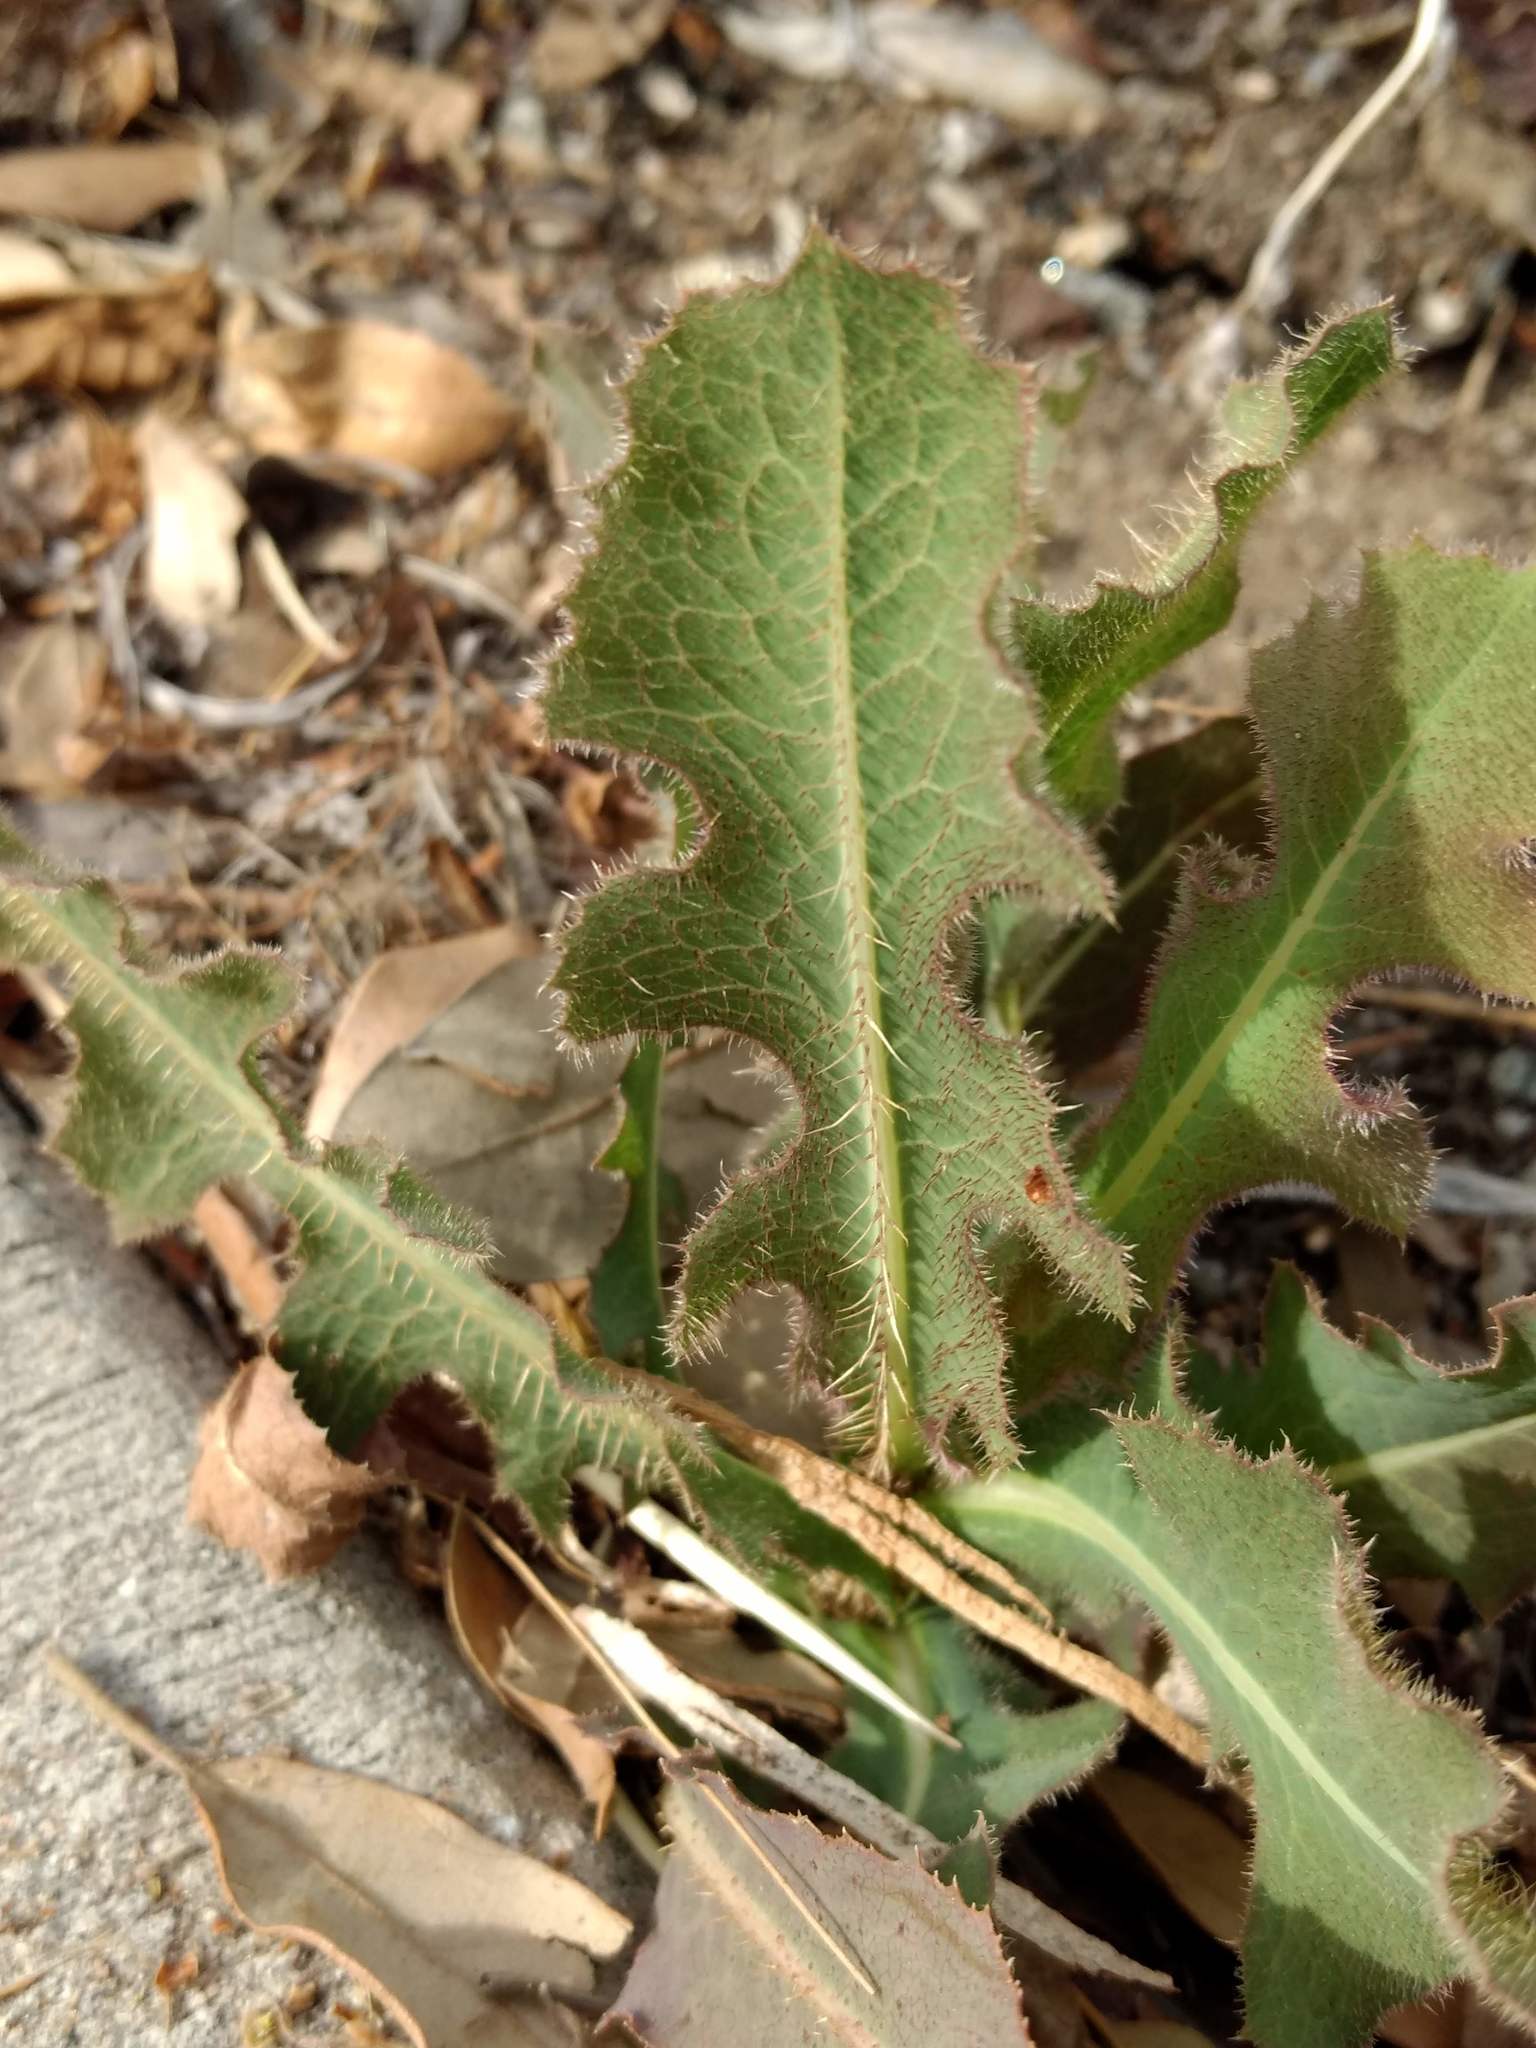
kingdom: Plantae
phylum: Tracheophyta
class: Magnoliopsida
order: Asterales
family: Asteraceae
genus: Lactuca
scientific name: Lactuca serriola
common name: Prickly lettuce
